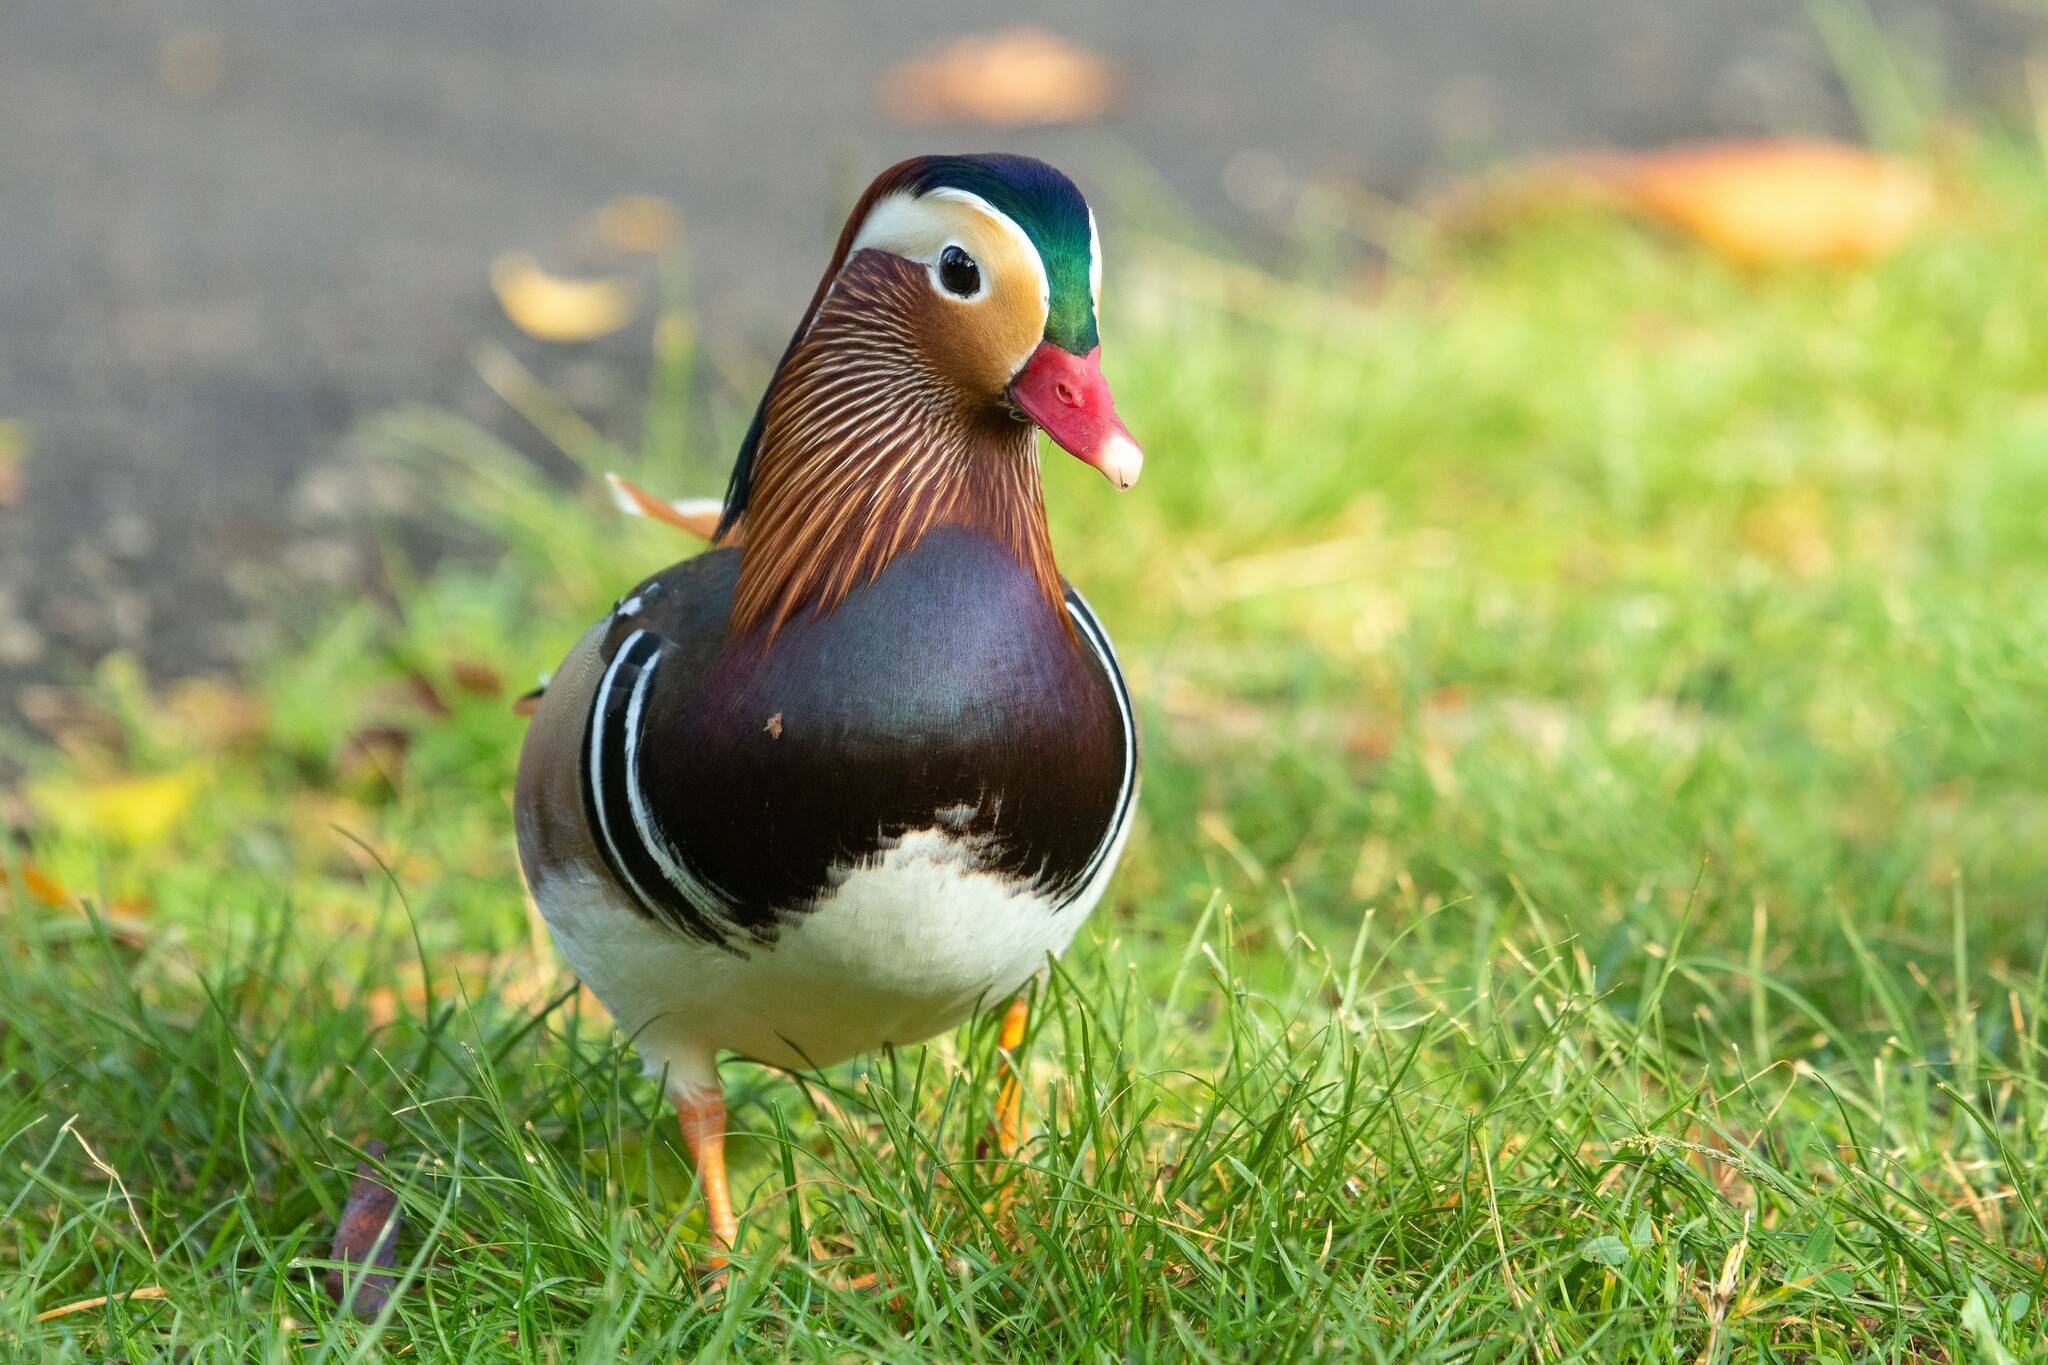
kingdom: Animalia
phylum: Chordata
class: Aves
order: Anseriformes
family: Anatidae
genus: Aix
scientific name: Aix galericulata
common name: Mandarin duck
